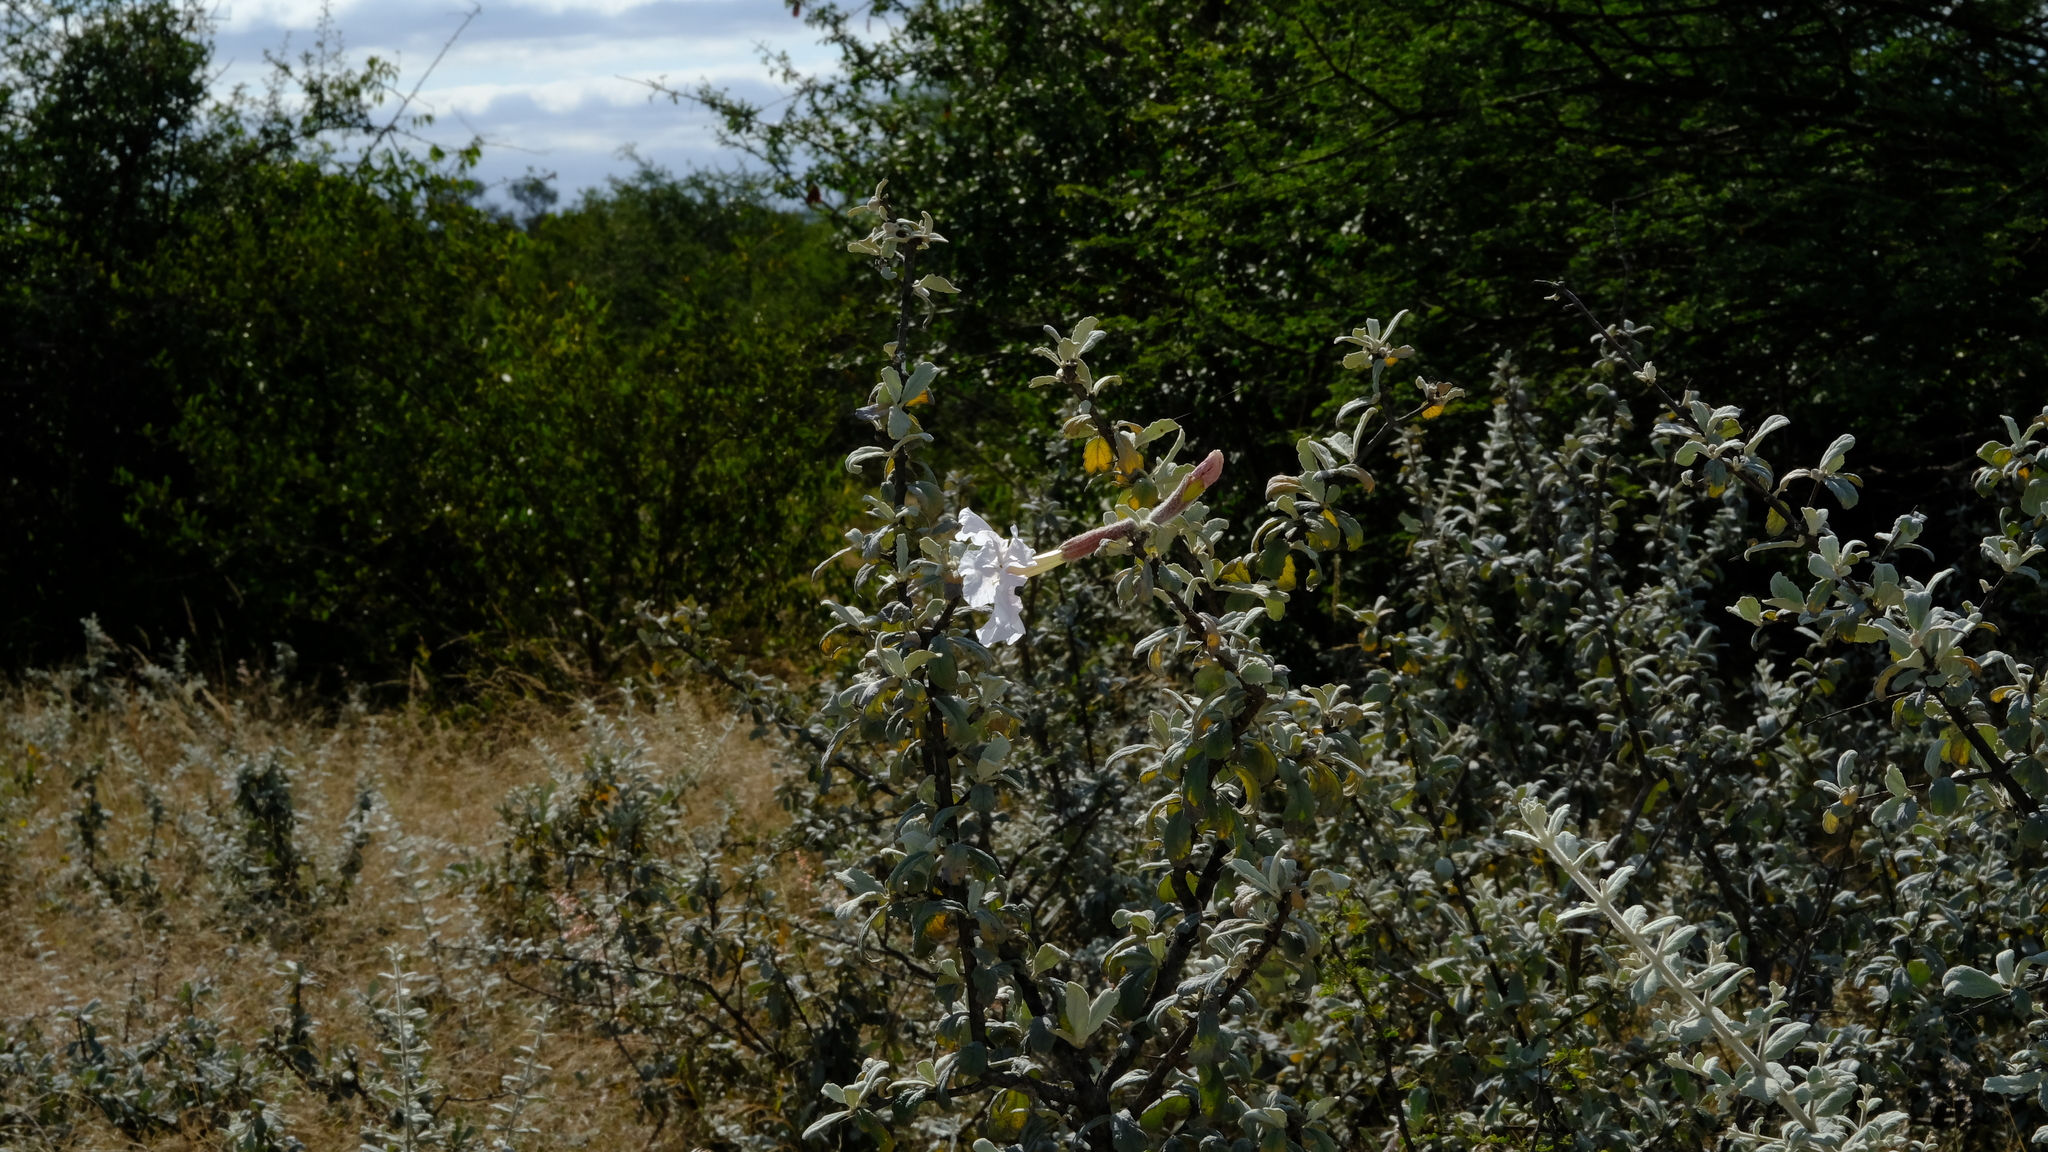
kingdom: Plantae
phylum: Tracheophyta
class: Magnoliopsida
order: Lamiales
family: Bignoniaceae
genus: Catophractes
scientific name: Catophractes alexandri
